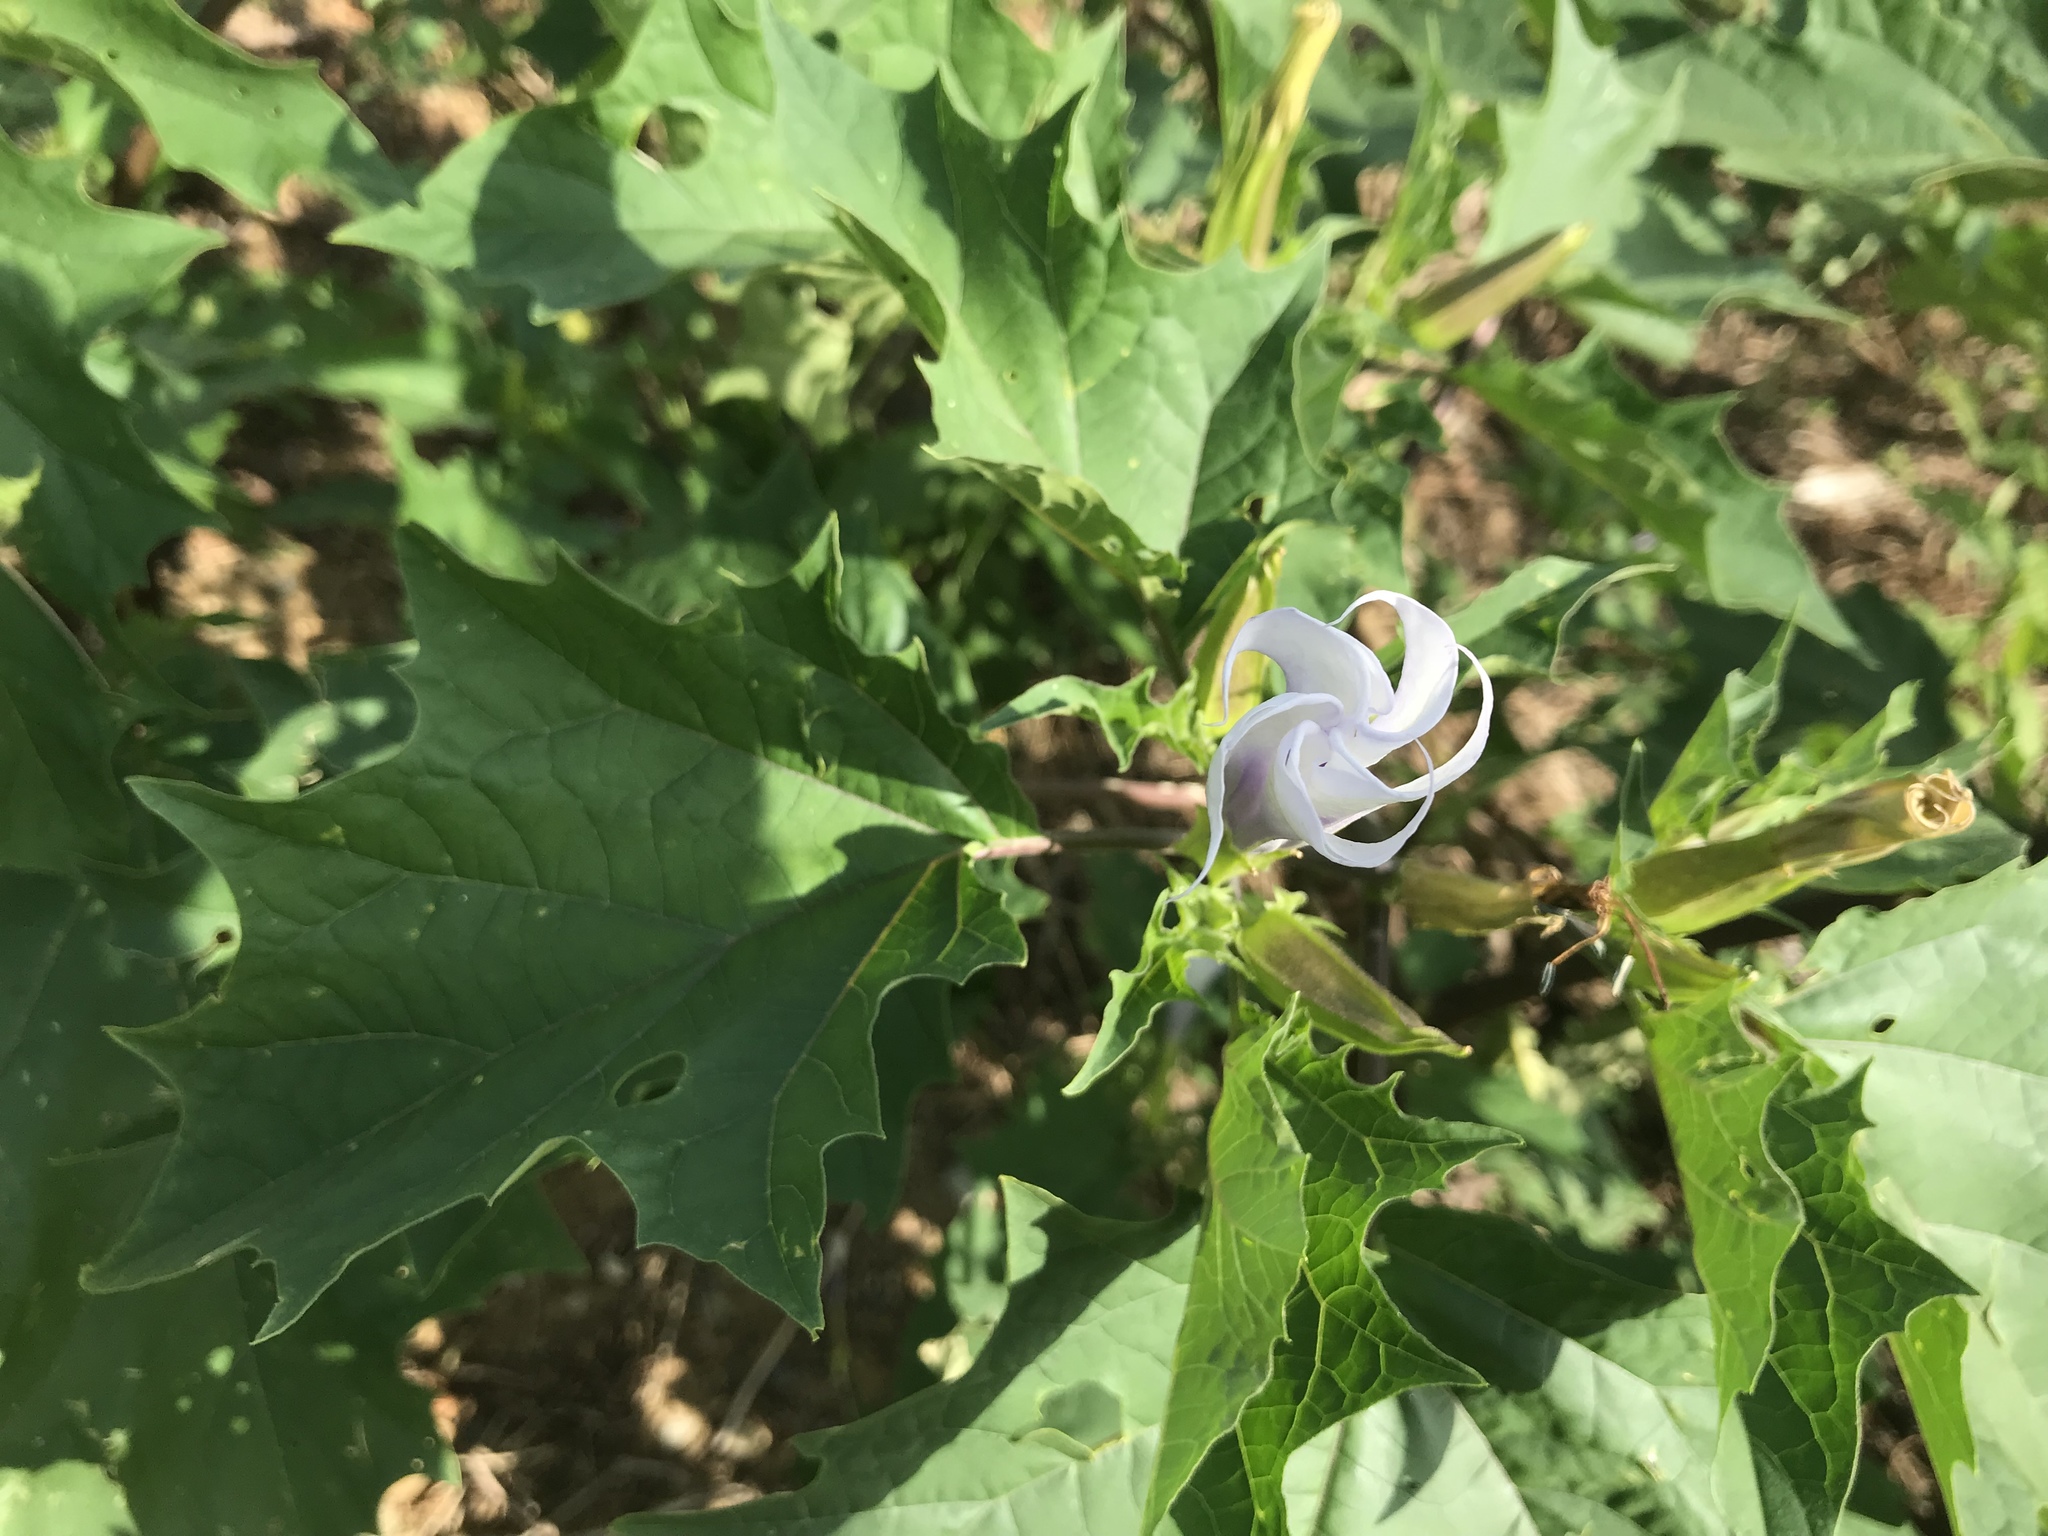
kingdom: Plantae
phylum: Tracheophyta
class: Magnoliopsida
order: Solanales
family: Solanaceae
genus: Datura
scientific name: Datura stramonium
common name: Thorn-apple
